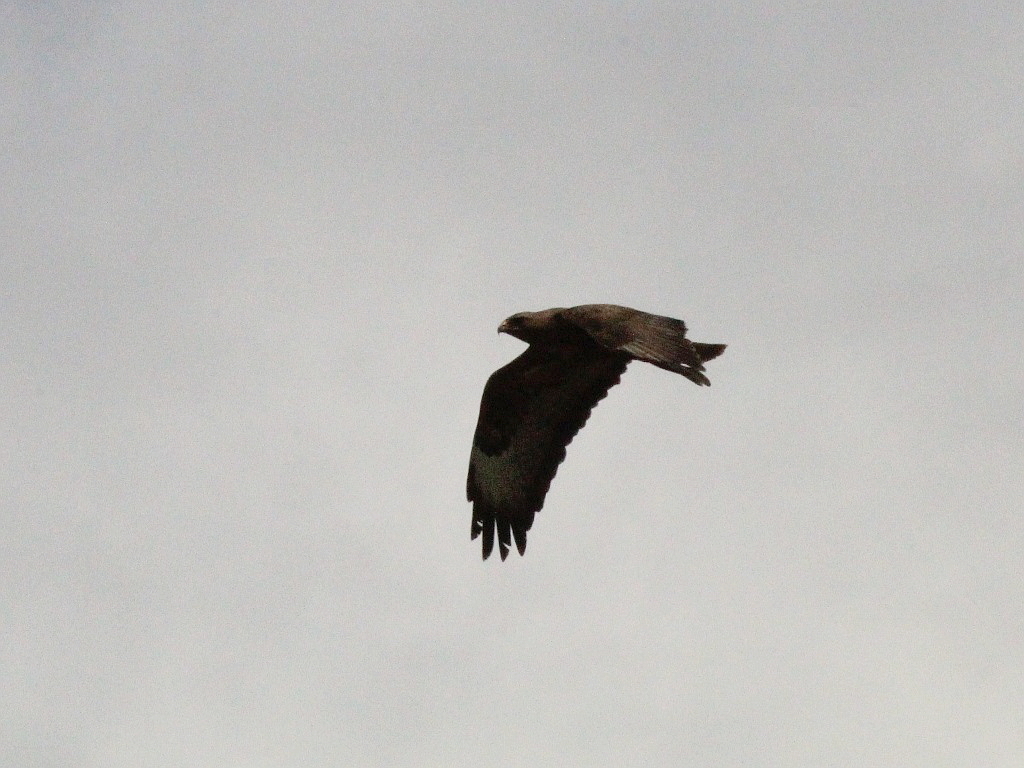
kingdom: Animalia
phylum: Chordata
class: Aves
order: Accipitriformes
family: Accipitridae
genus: Buteo
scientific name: Buteo buteo
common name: Common buzzard
